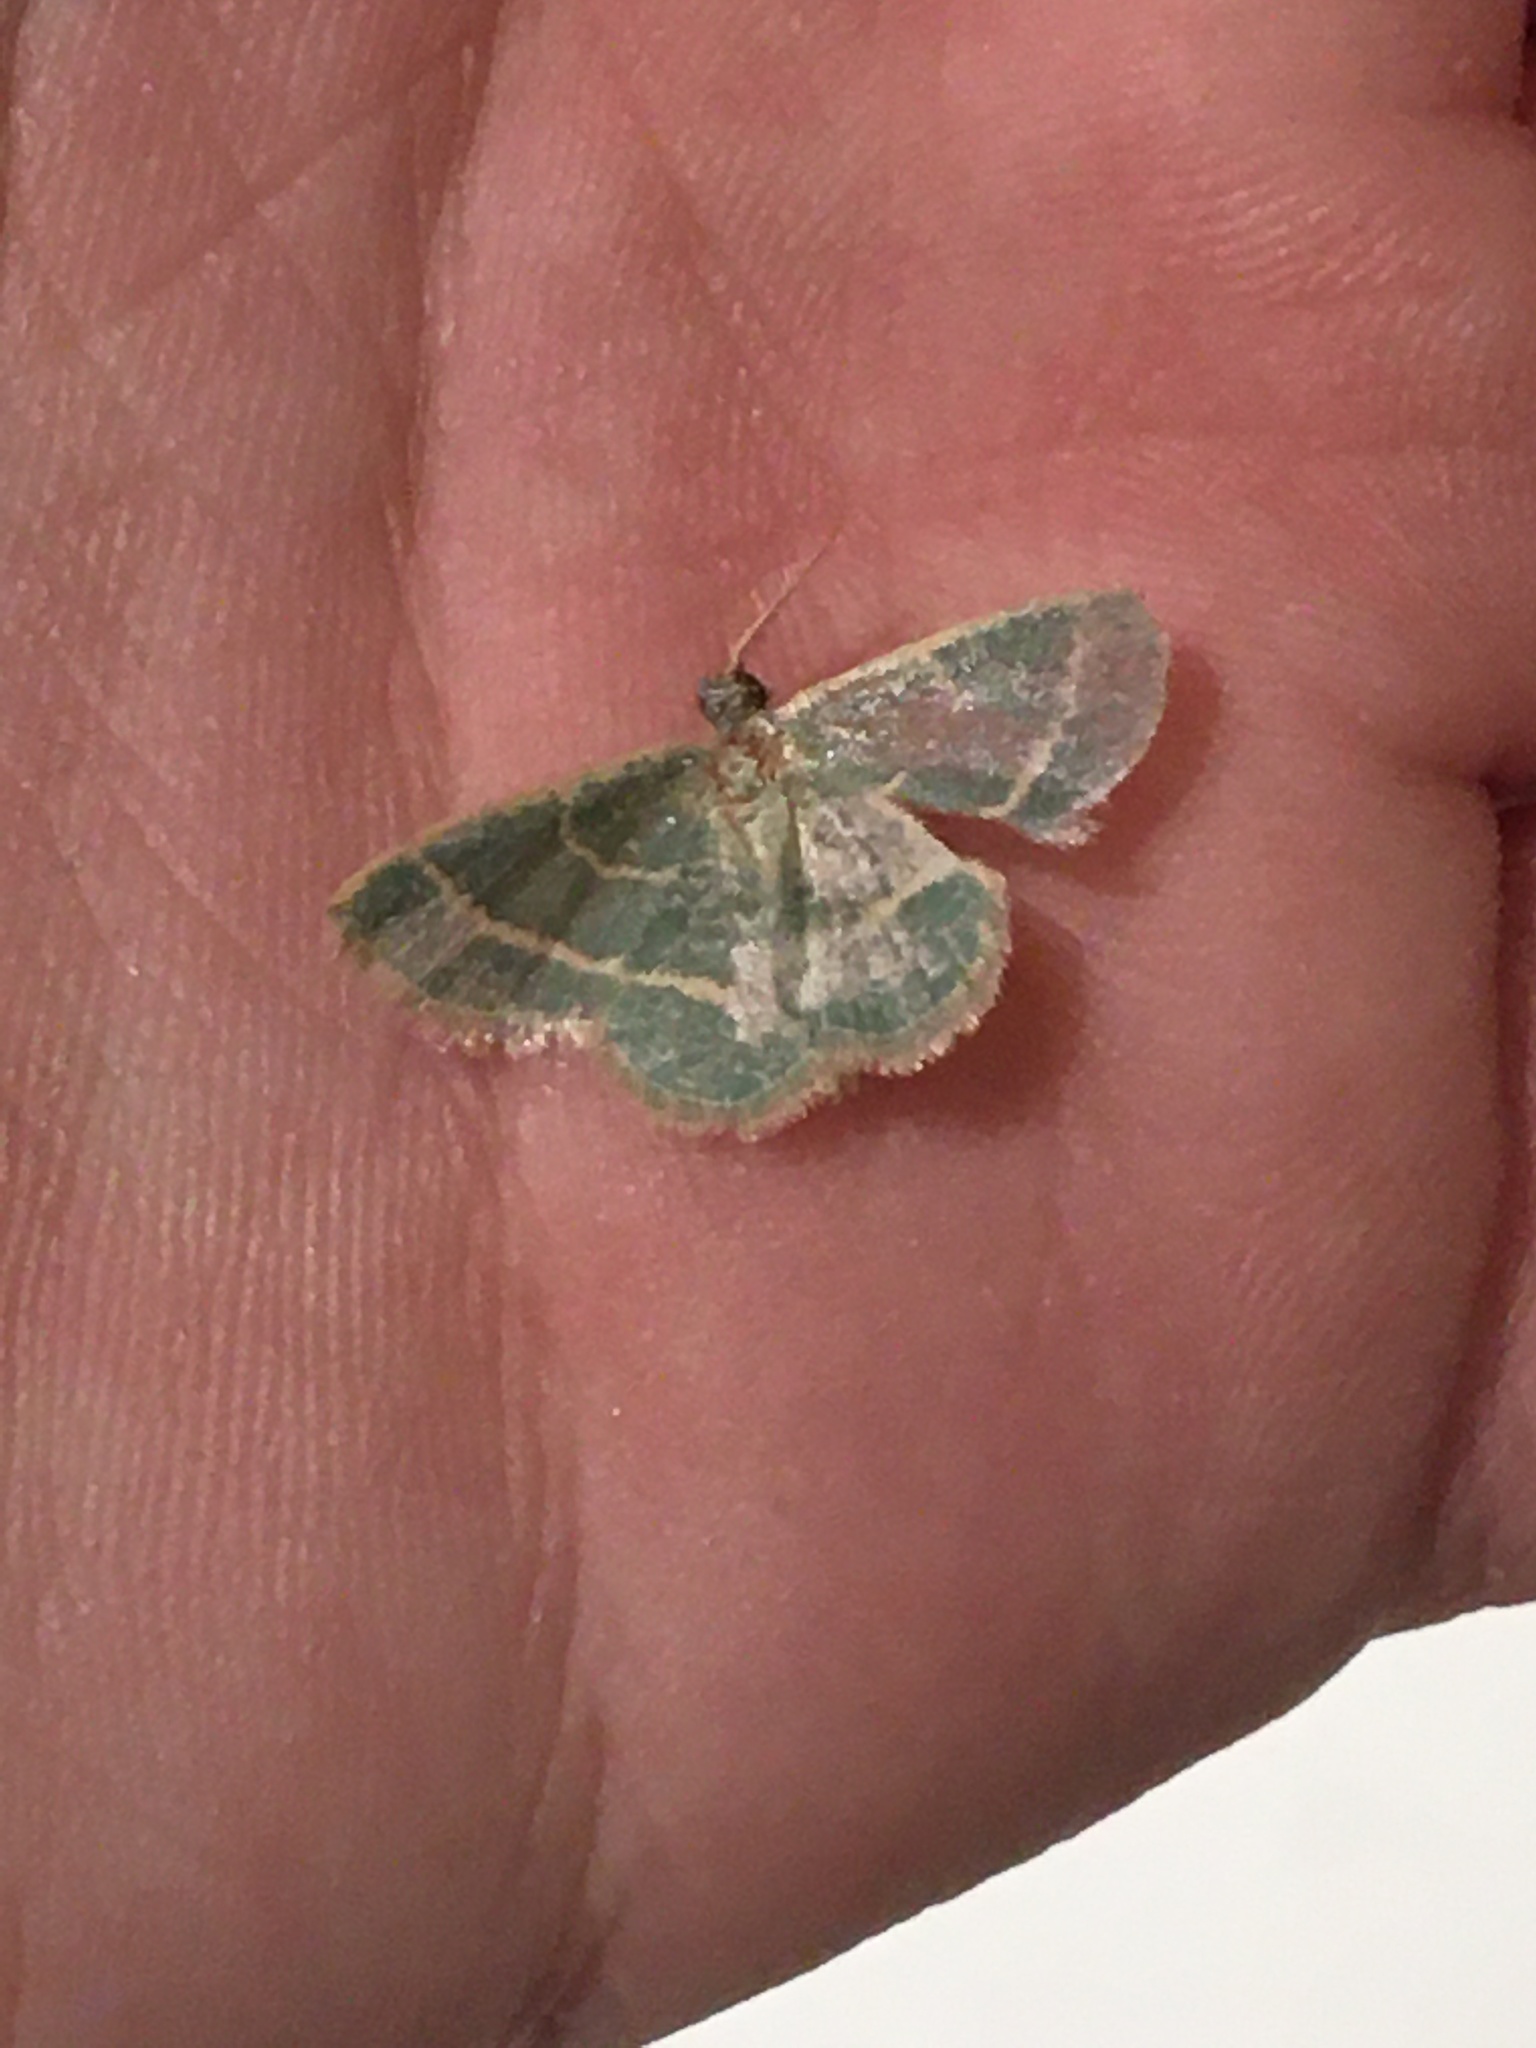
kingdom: Animalia
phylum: Arthropoda
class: Insecta
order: Lepidoptera
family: Geometridae
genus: Chlorochlamys
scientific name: Chlorochlamys chloroleucaria
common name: Blackberry looper
